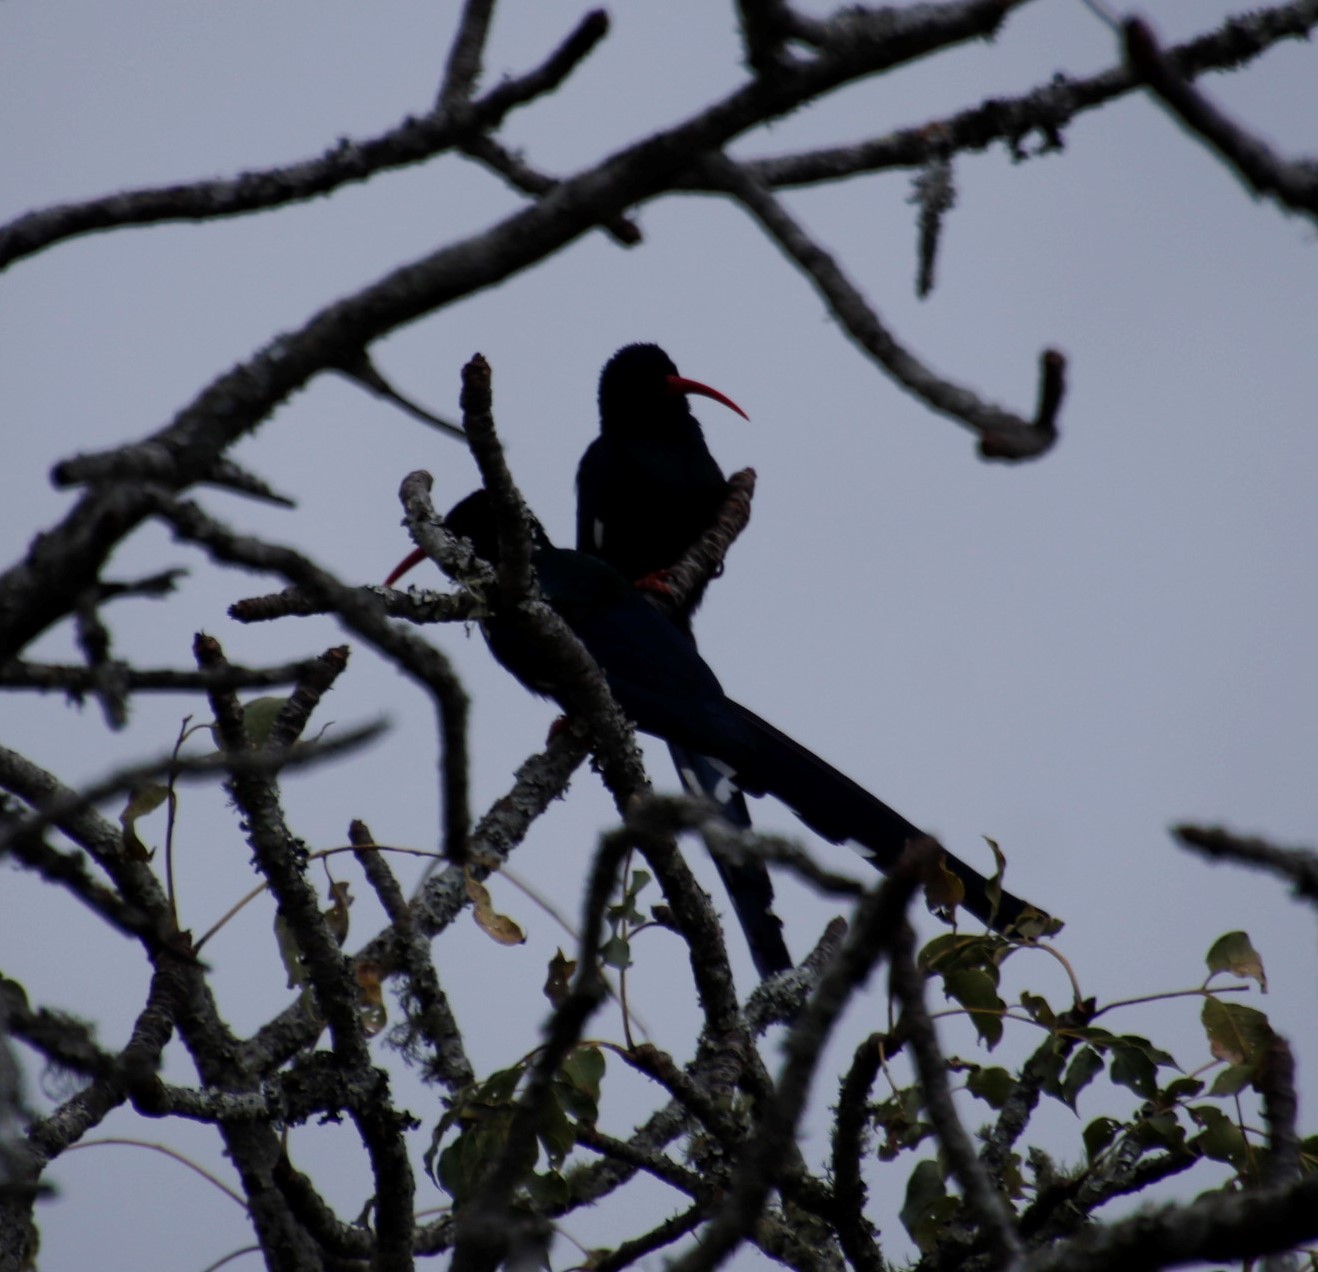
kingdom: Animalia
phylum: Chordata
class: Aves
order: Bucerotiformes
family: Phoeniculidae
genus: Phoeniculus
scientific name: Phoeniculus purpureus
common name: Green woodhoopoe
